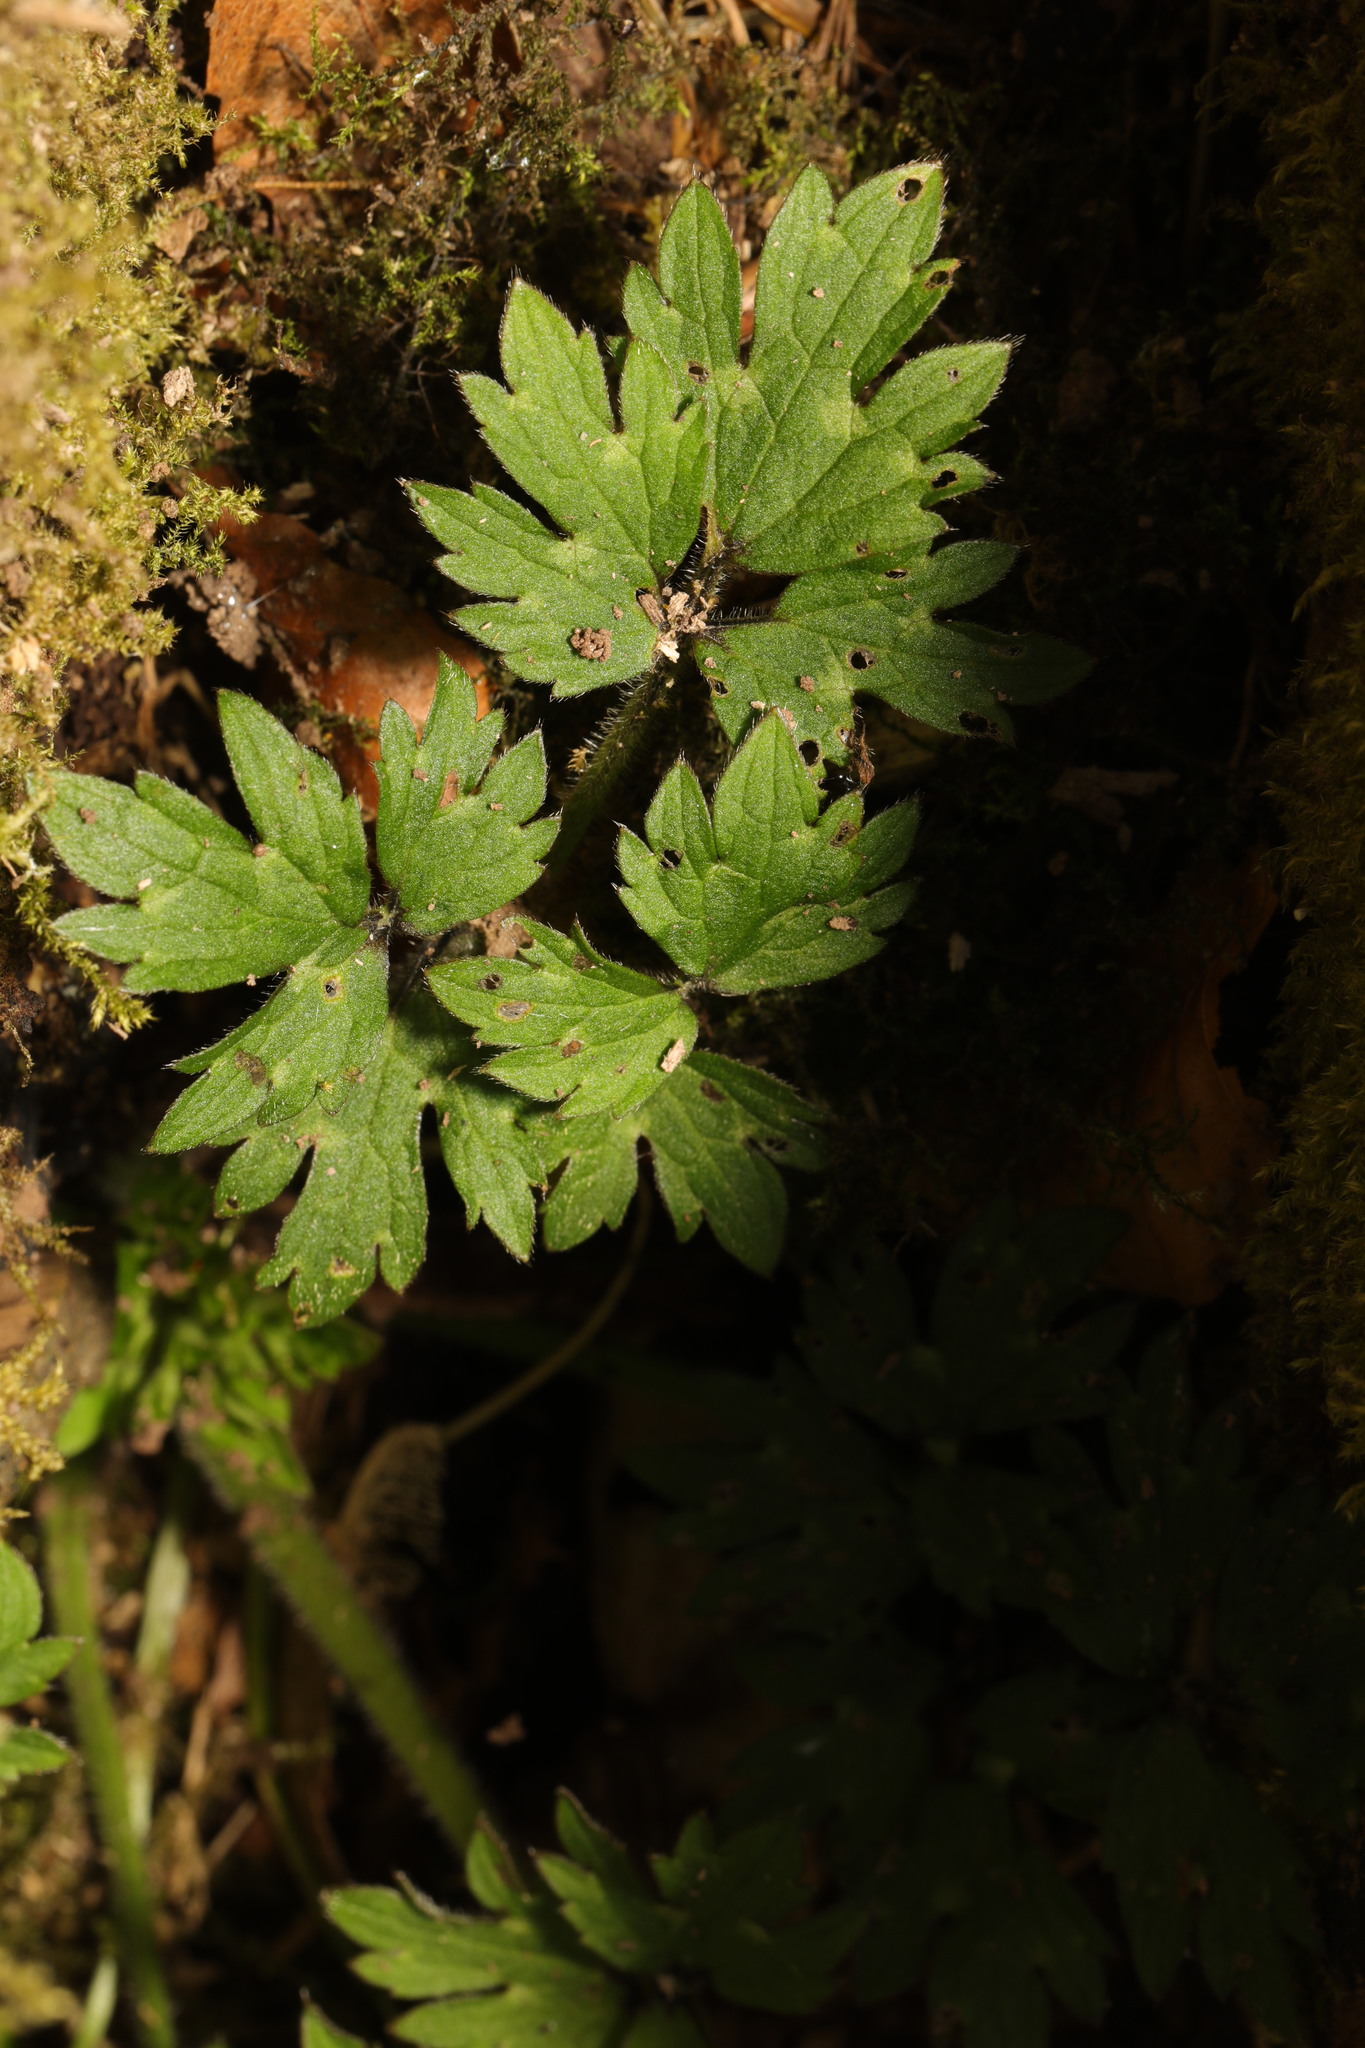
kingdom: Plantae
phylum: Tracheophyta
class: Magnoliopsida
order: Ranunculales
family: Ranunculaceae
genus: Ranunculus
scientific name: Ranunculus repens
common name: Creeping buttercup
